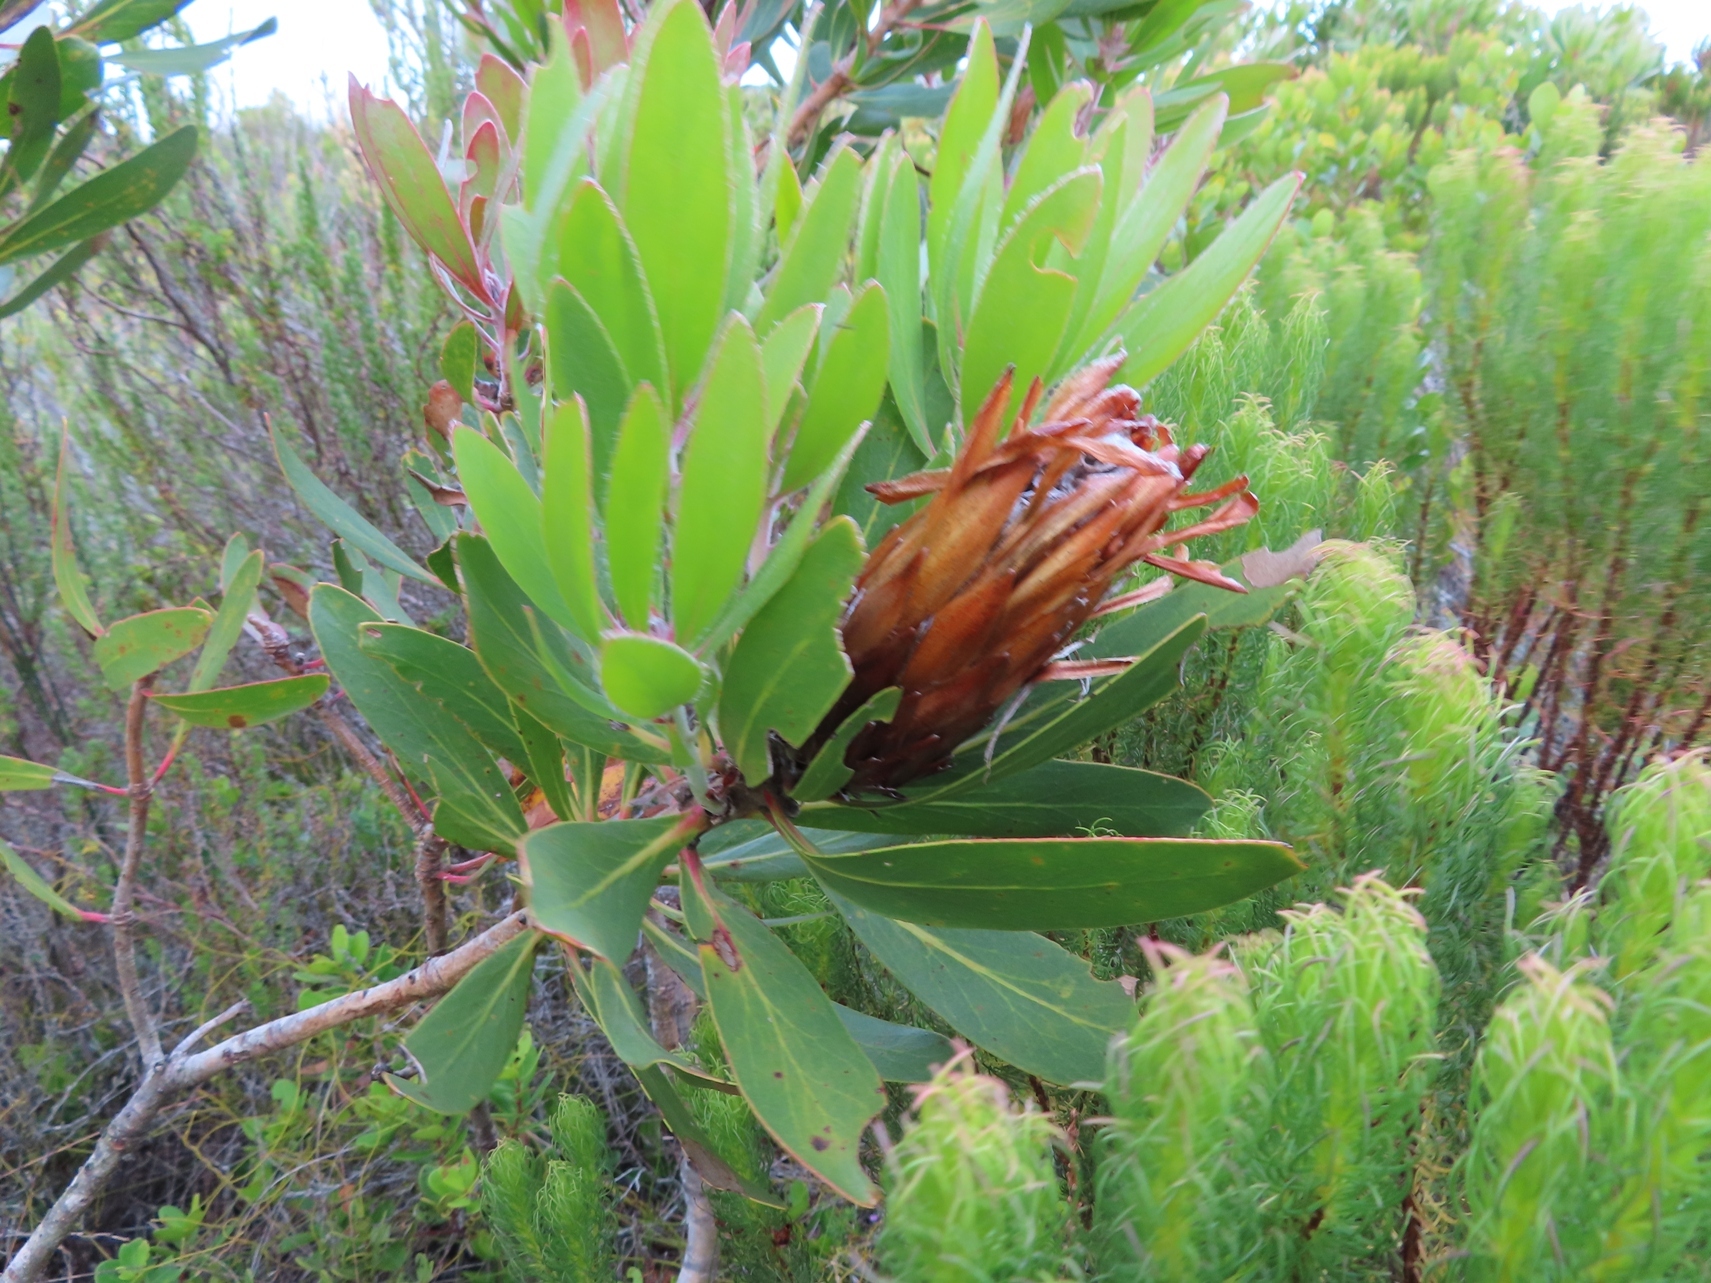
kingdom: Plantae
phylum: Tracheophyta
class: Magnoliopsida
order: Proteales
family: Proteaceae
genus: Protea
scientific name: Protea obtusifolia
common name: Bredasdorp sugarbush
